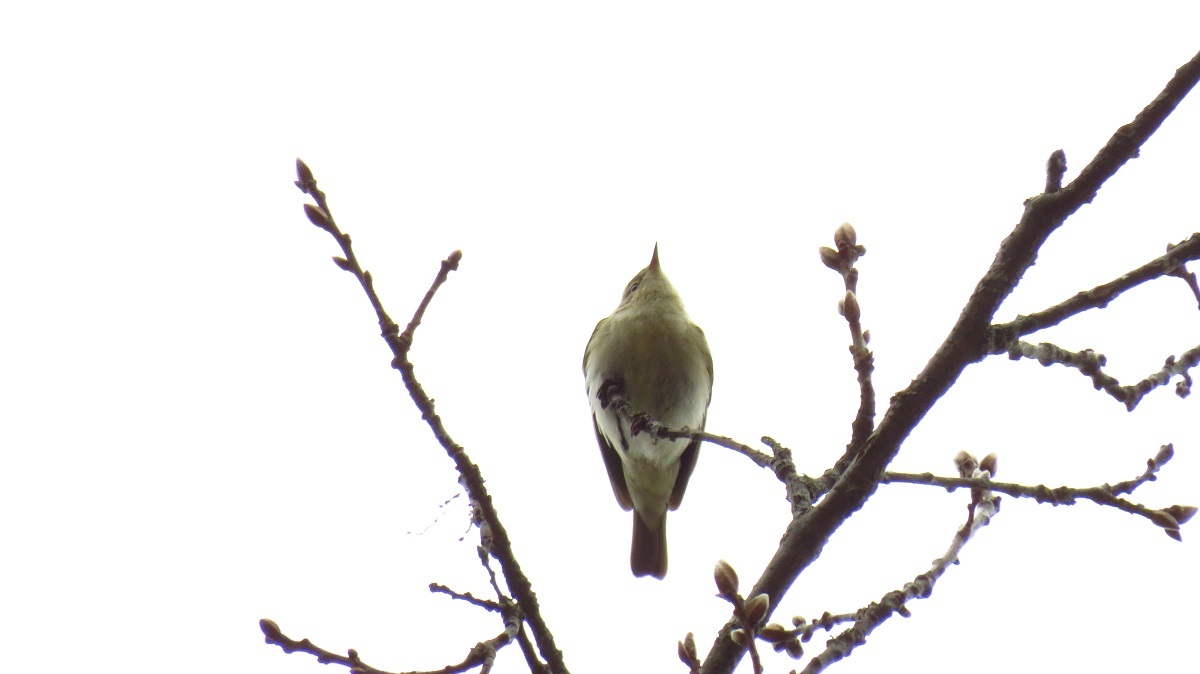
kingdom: Animalia
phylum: Chordata
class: Aves
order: Passeriformes
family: Phylloscopidae
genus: Phylloscopus
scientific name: Phylloscopus collybita
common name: Common chiffchaff
